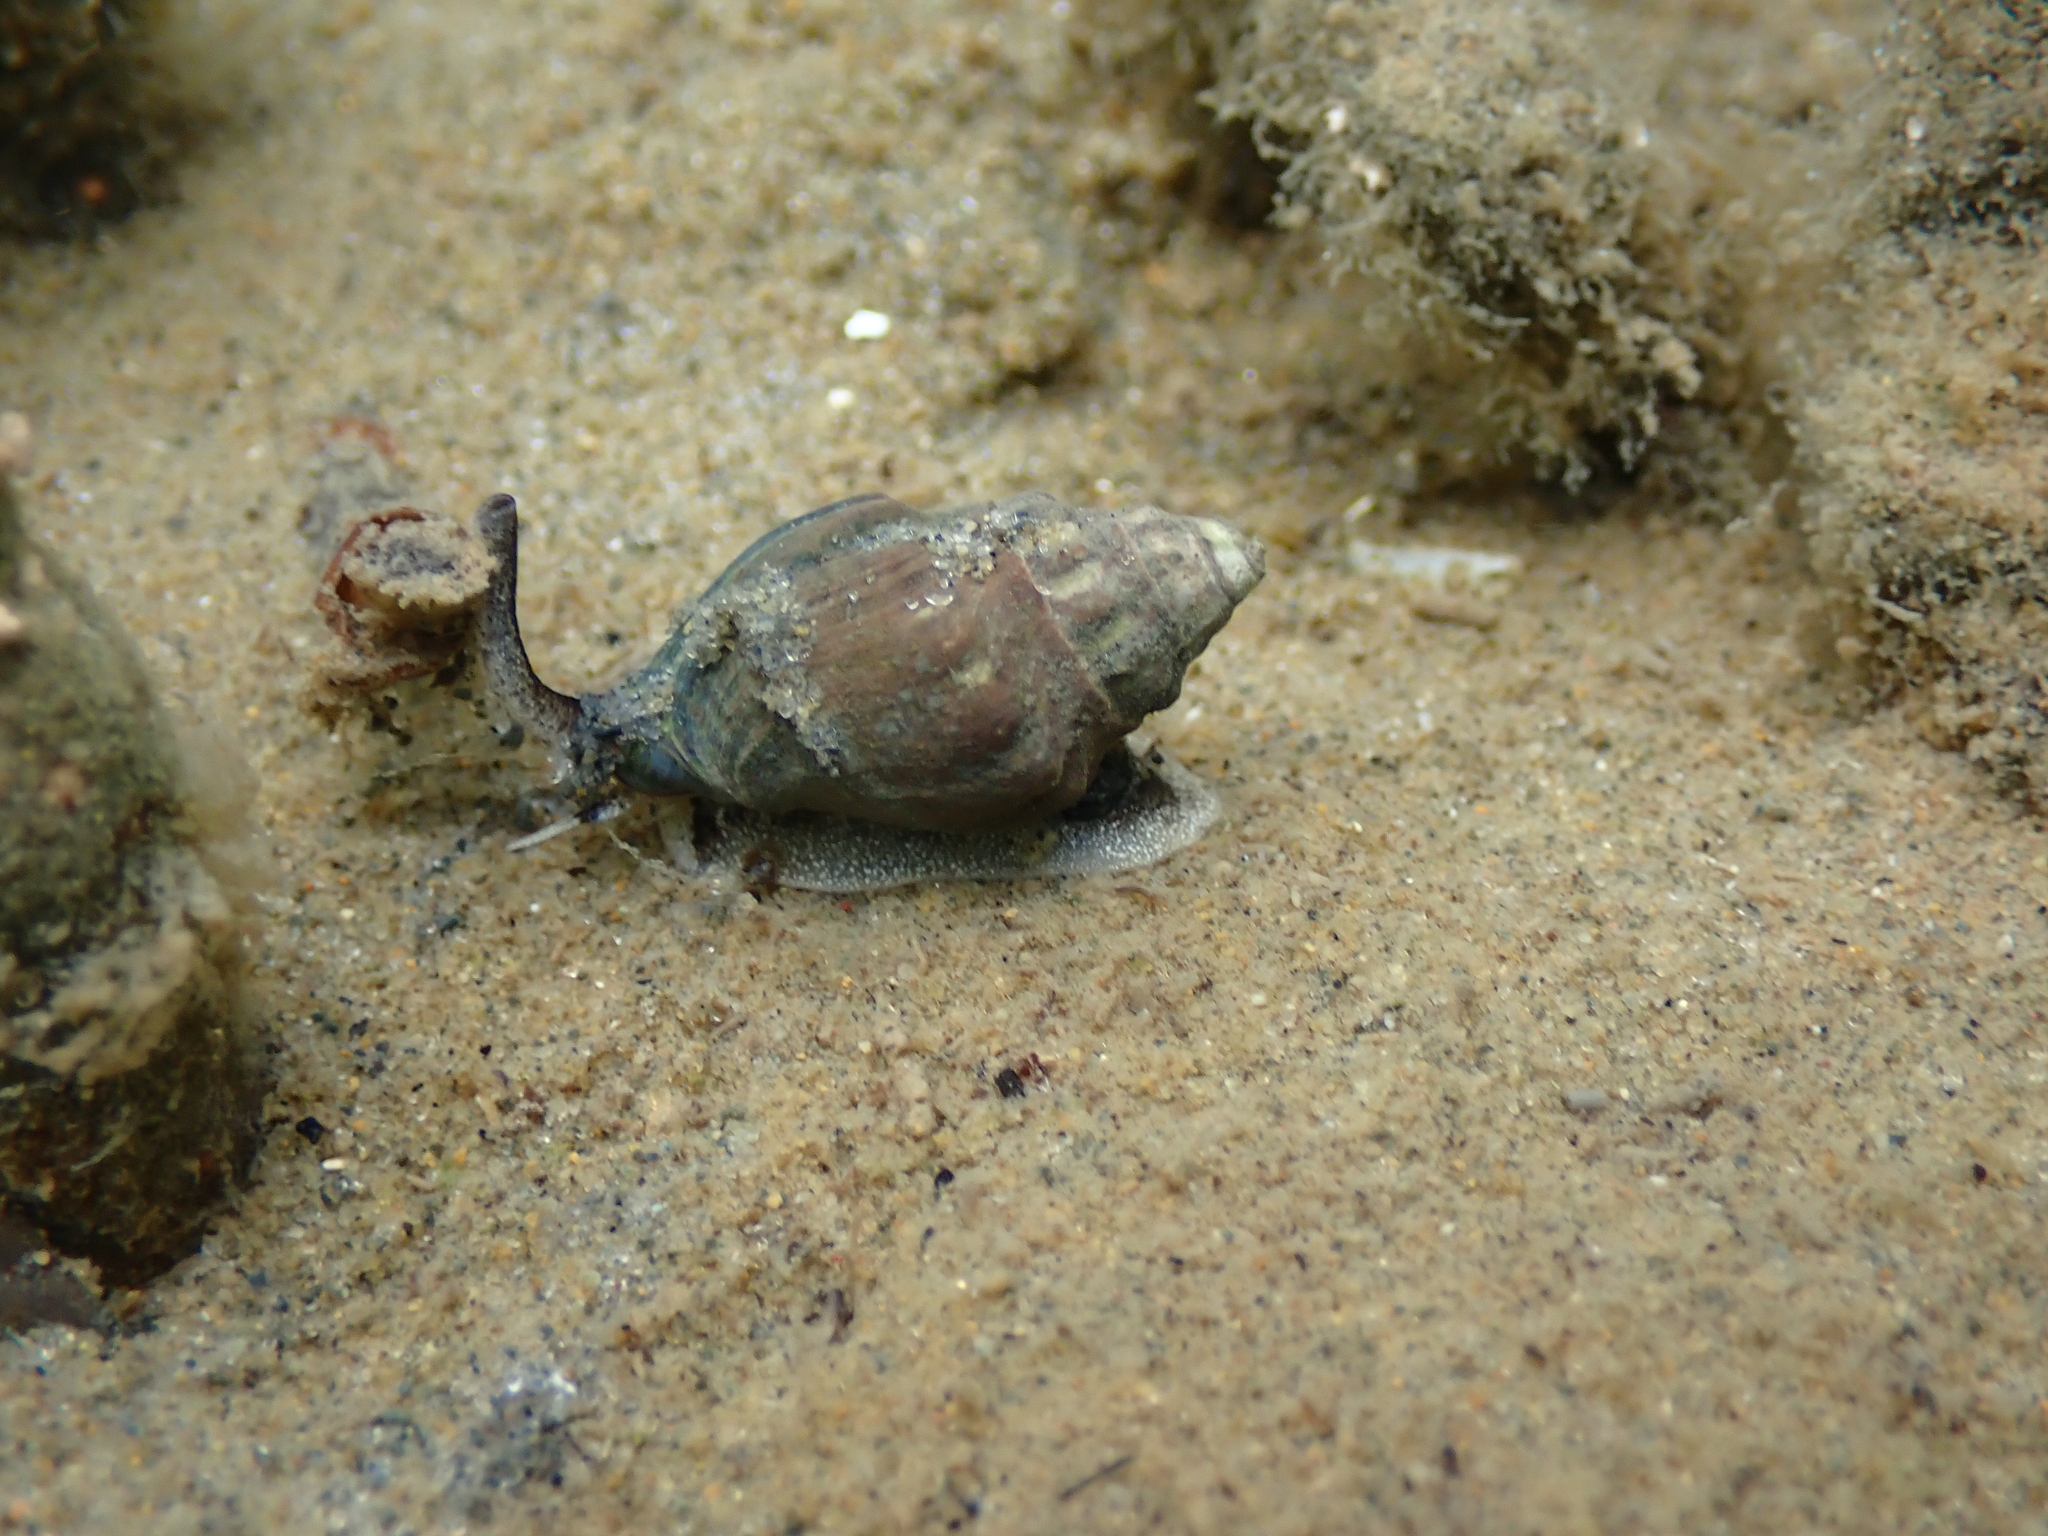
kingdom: Animalia
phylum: Mollusca
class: Gastropoda
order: Neogastropoda
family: Cominellidae
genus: Cominella
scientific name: Cominella glandiformis
